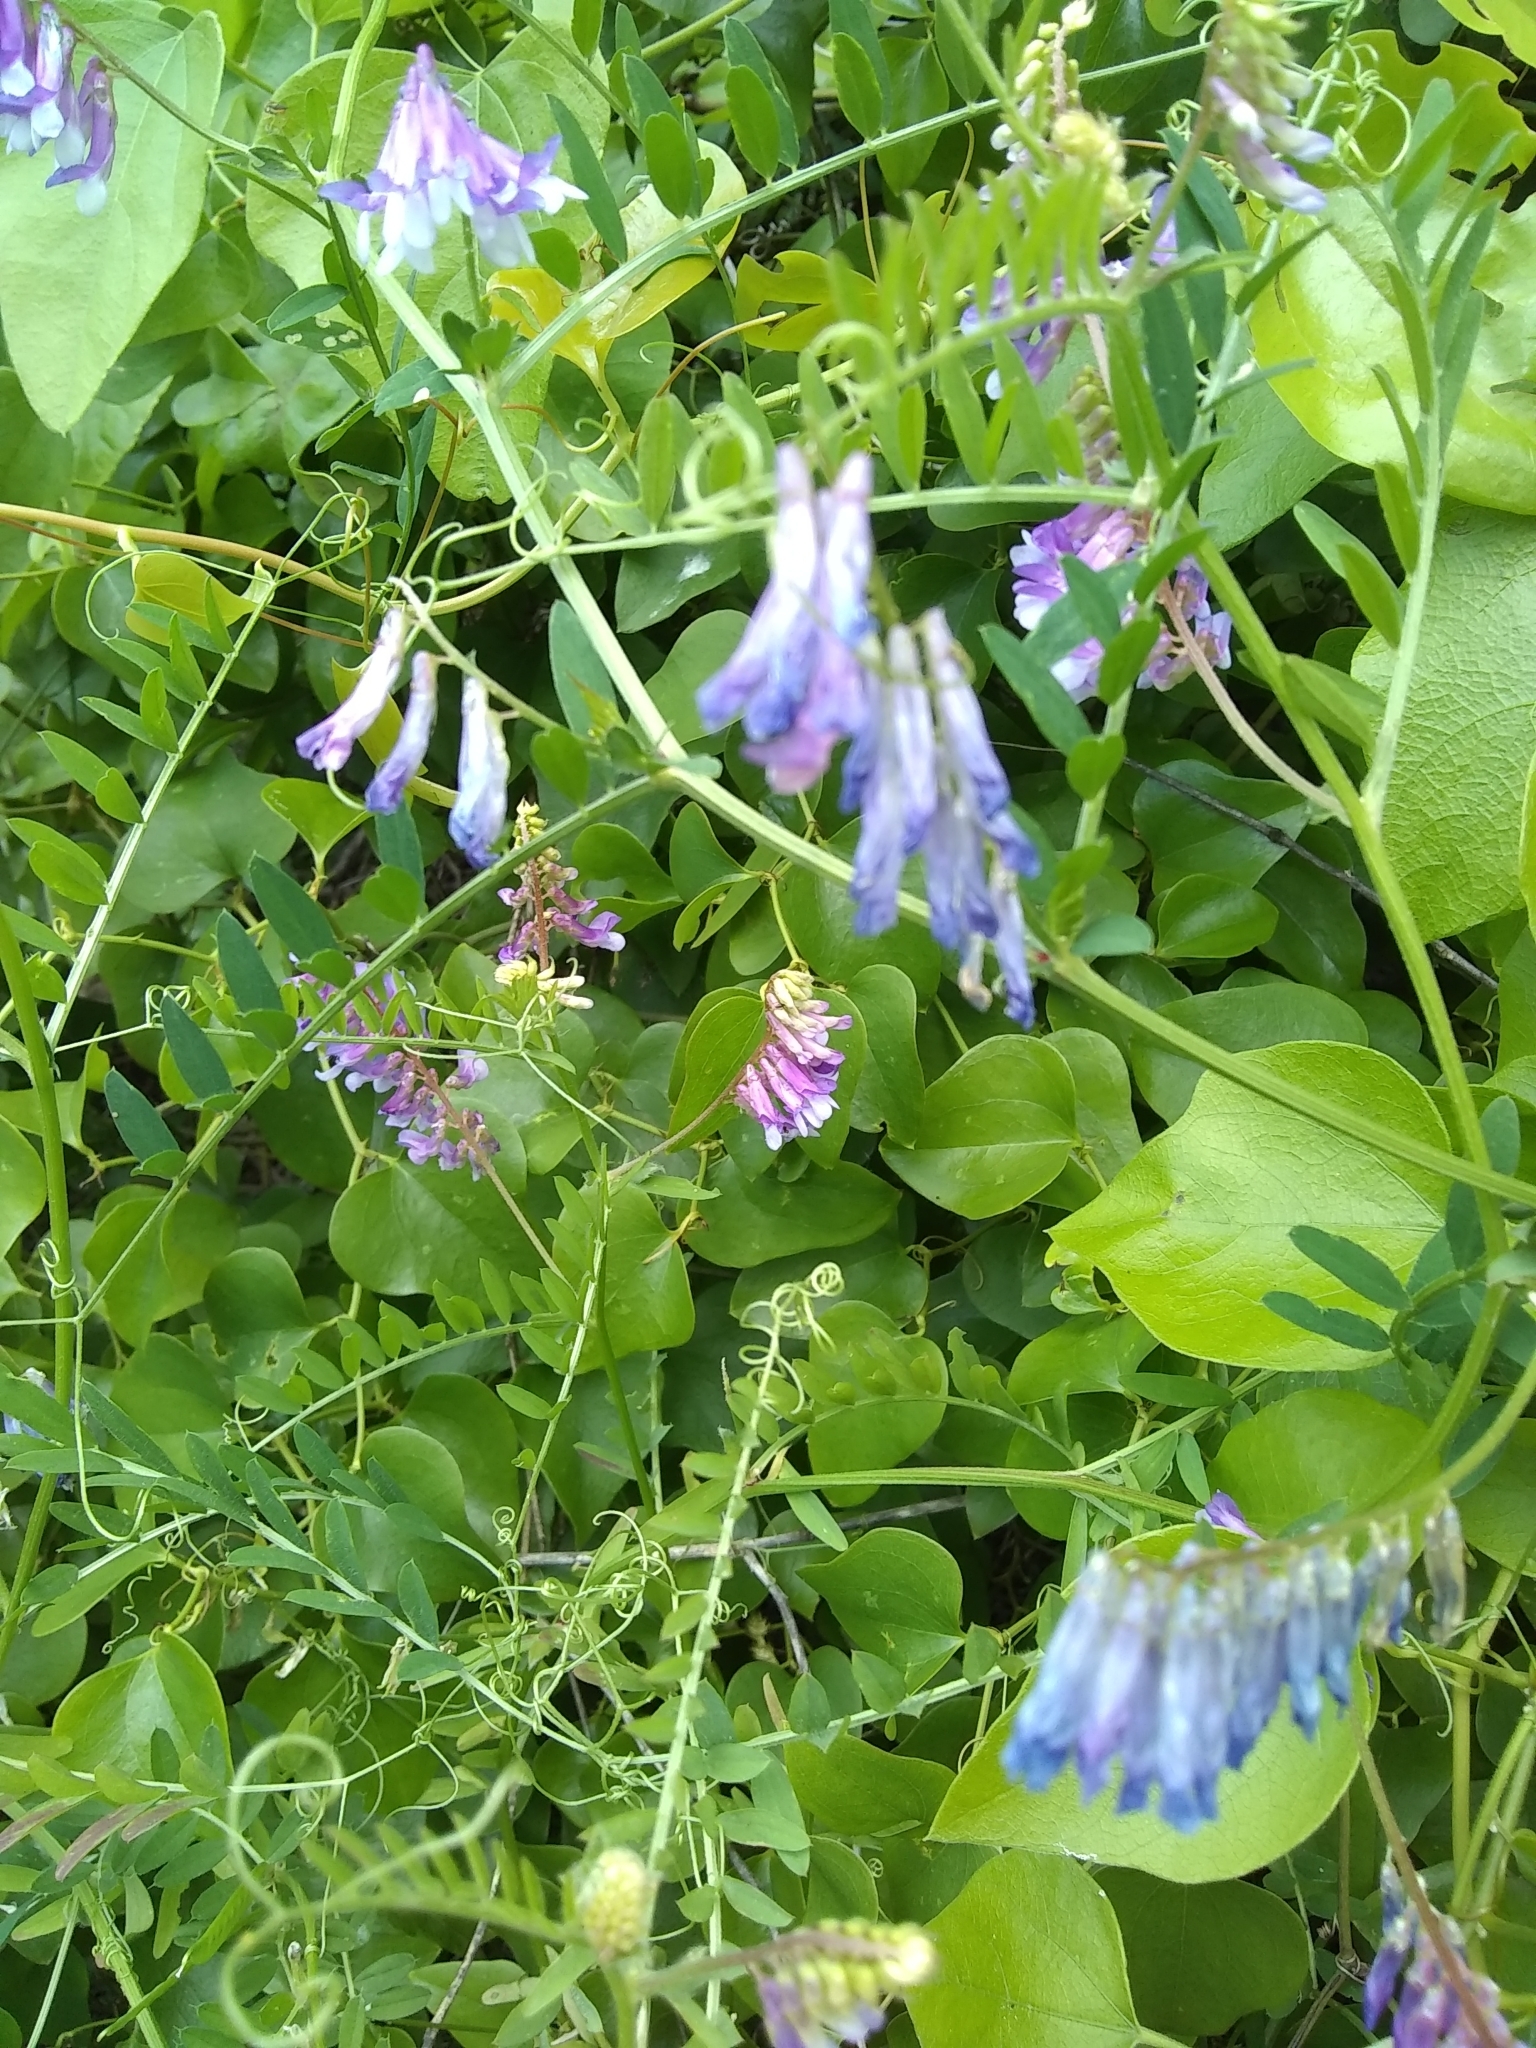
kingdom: Plantae
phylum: Tracheophyta
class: Magnoliopsida
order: Fabales
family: Fabaceae
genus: Vicia
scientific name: Vicia villosa
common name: Fodder vetch
